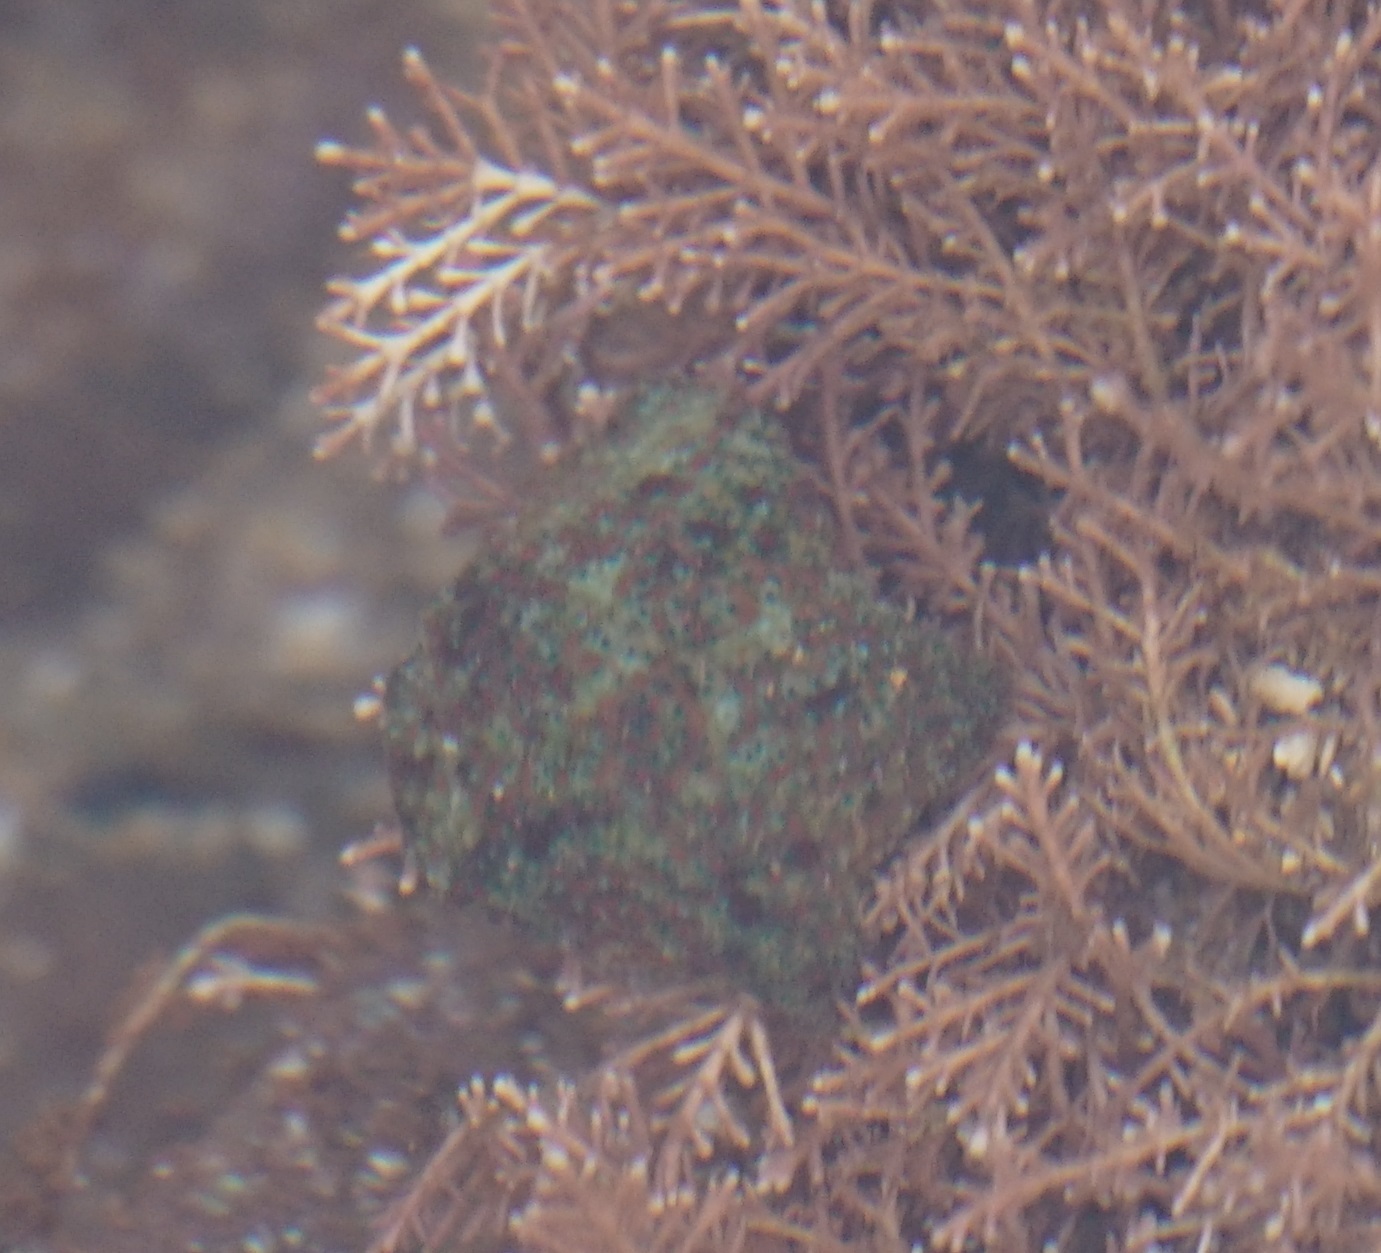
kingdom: Animalia
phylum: Echinodermata
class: Asteroidea
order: Valvatida
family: Asterinidae
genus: Parvulastra
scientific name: Parvulastra exigua
